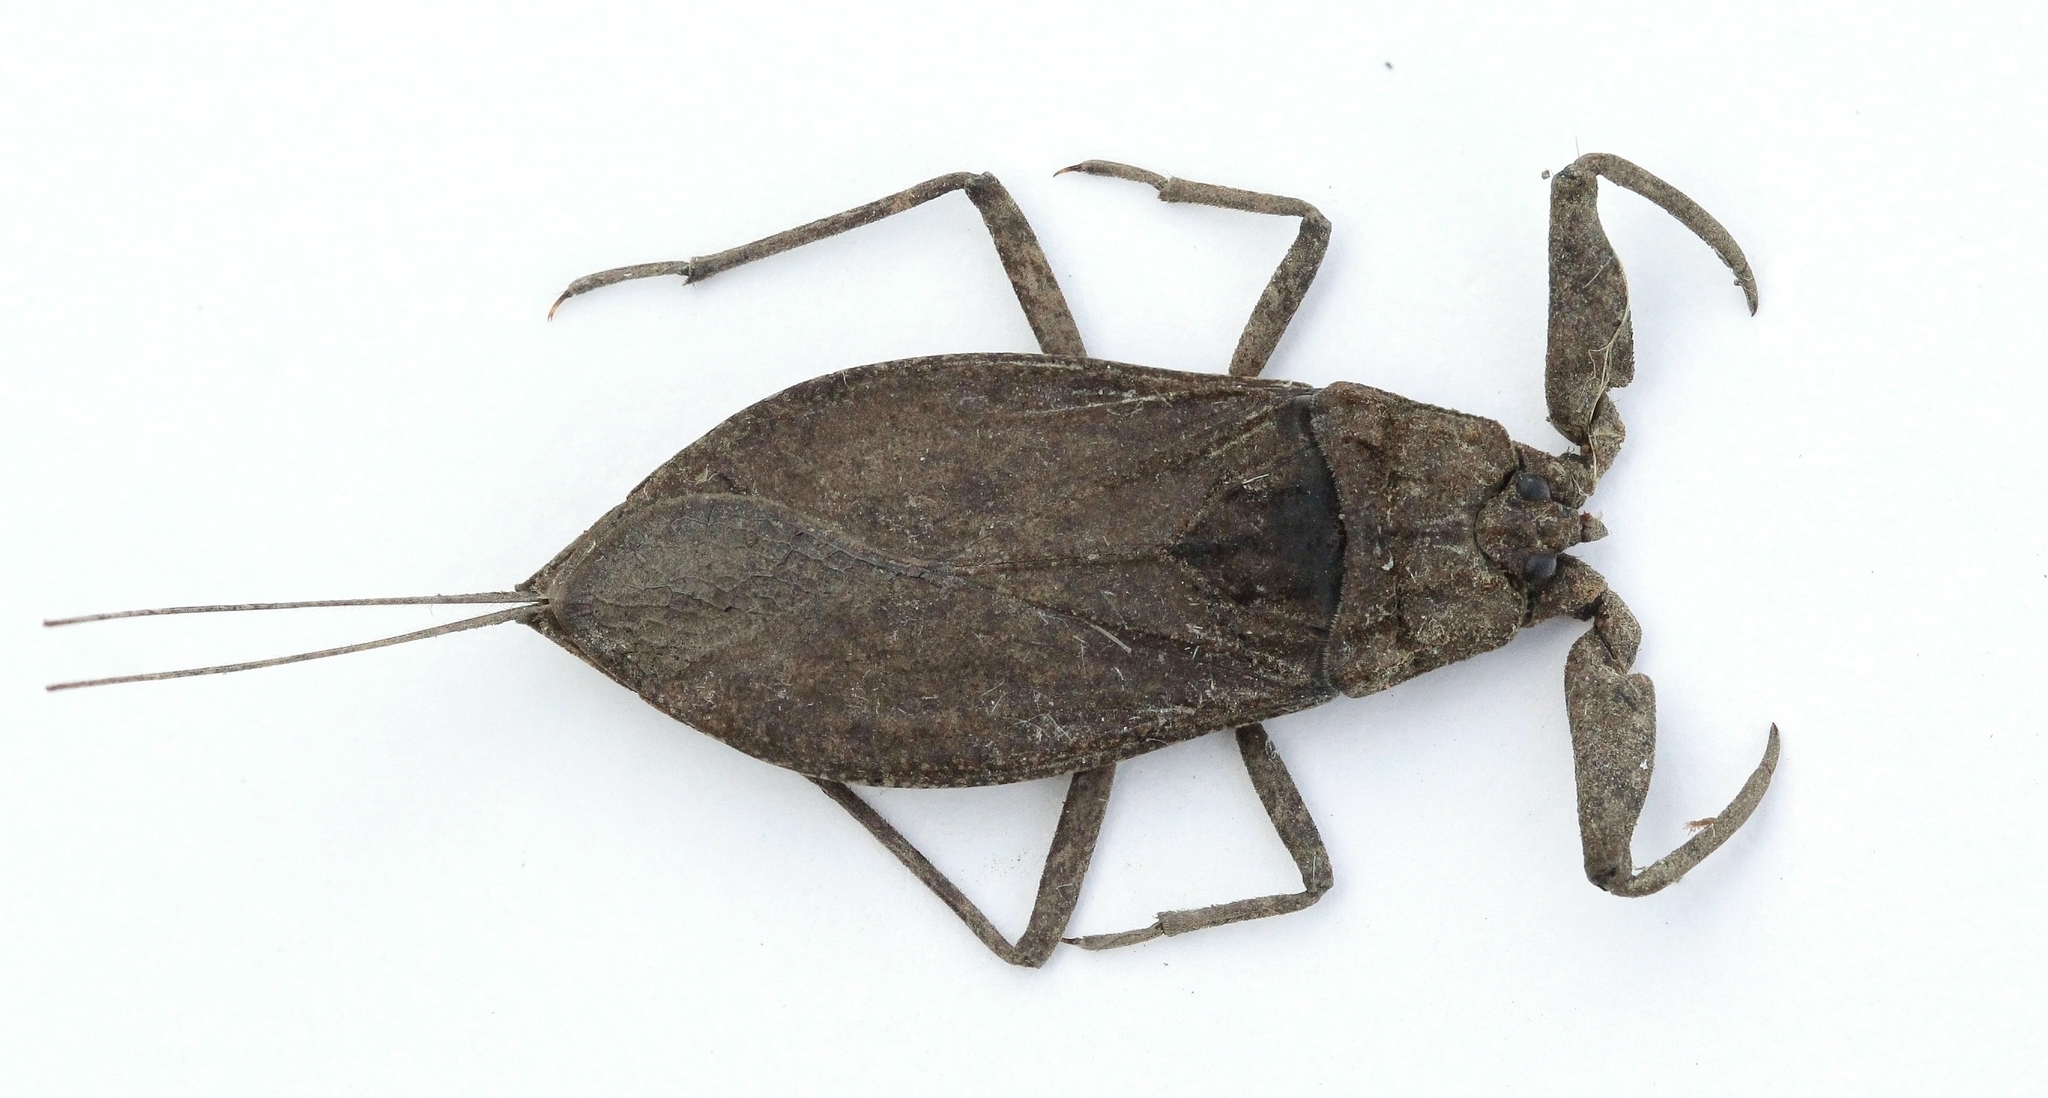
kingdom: Animalia
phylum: Arthropoda
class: Insecta
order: Hemiptera
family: Nepidae
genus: Nepa
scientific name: Nepa cinerea
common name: Water scorpion
